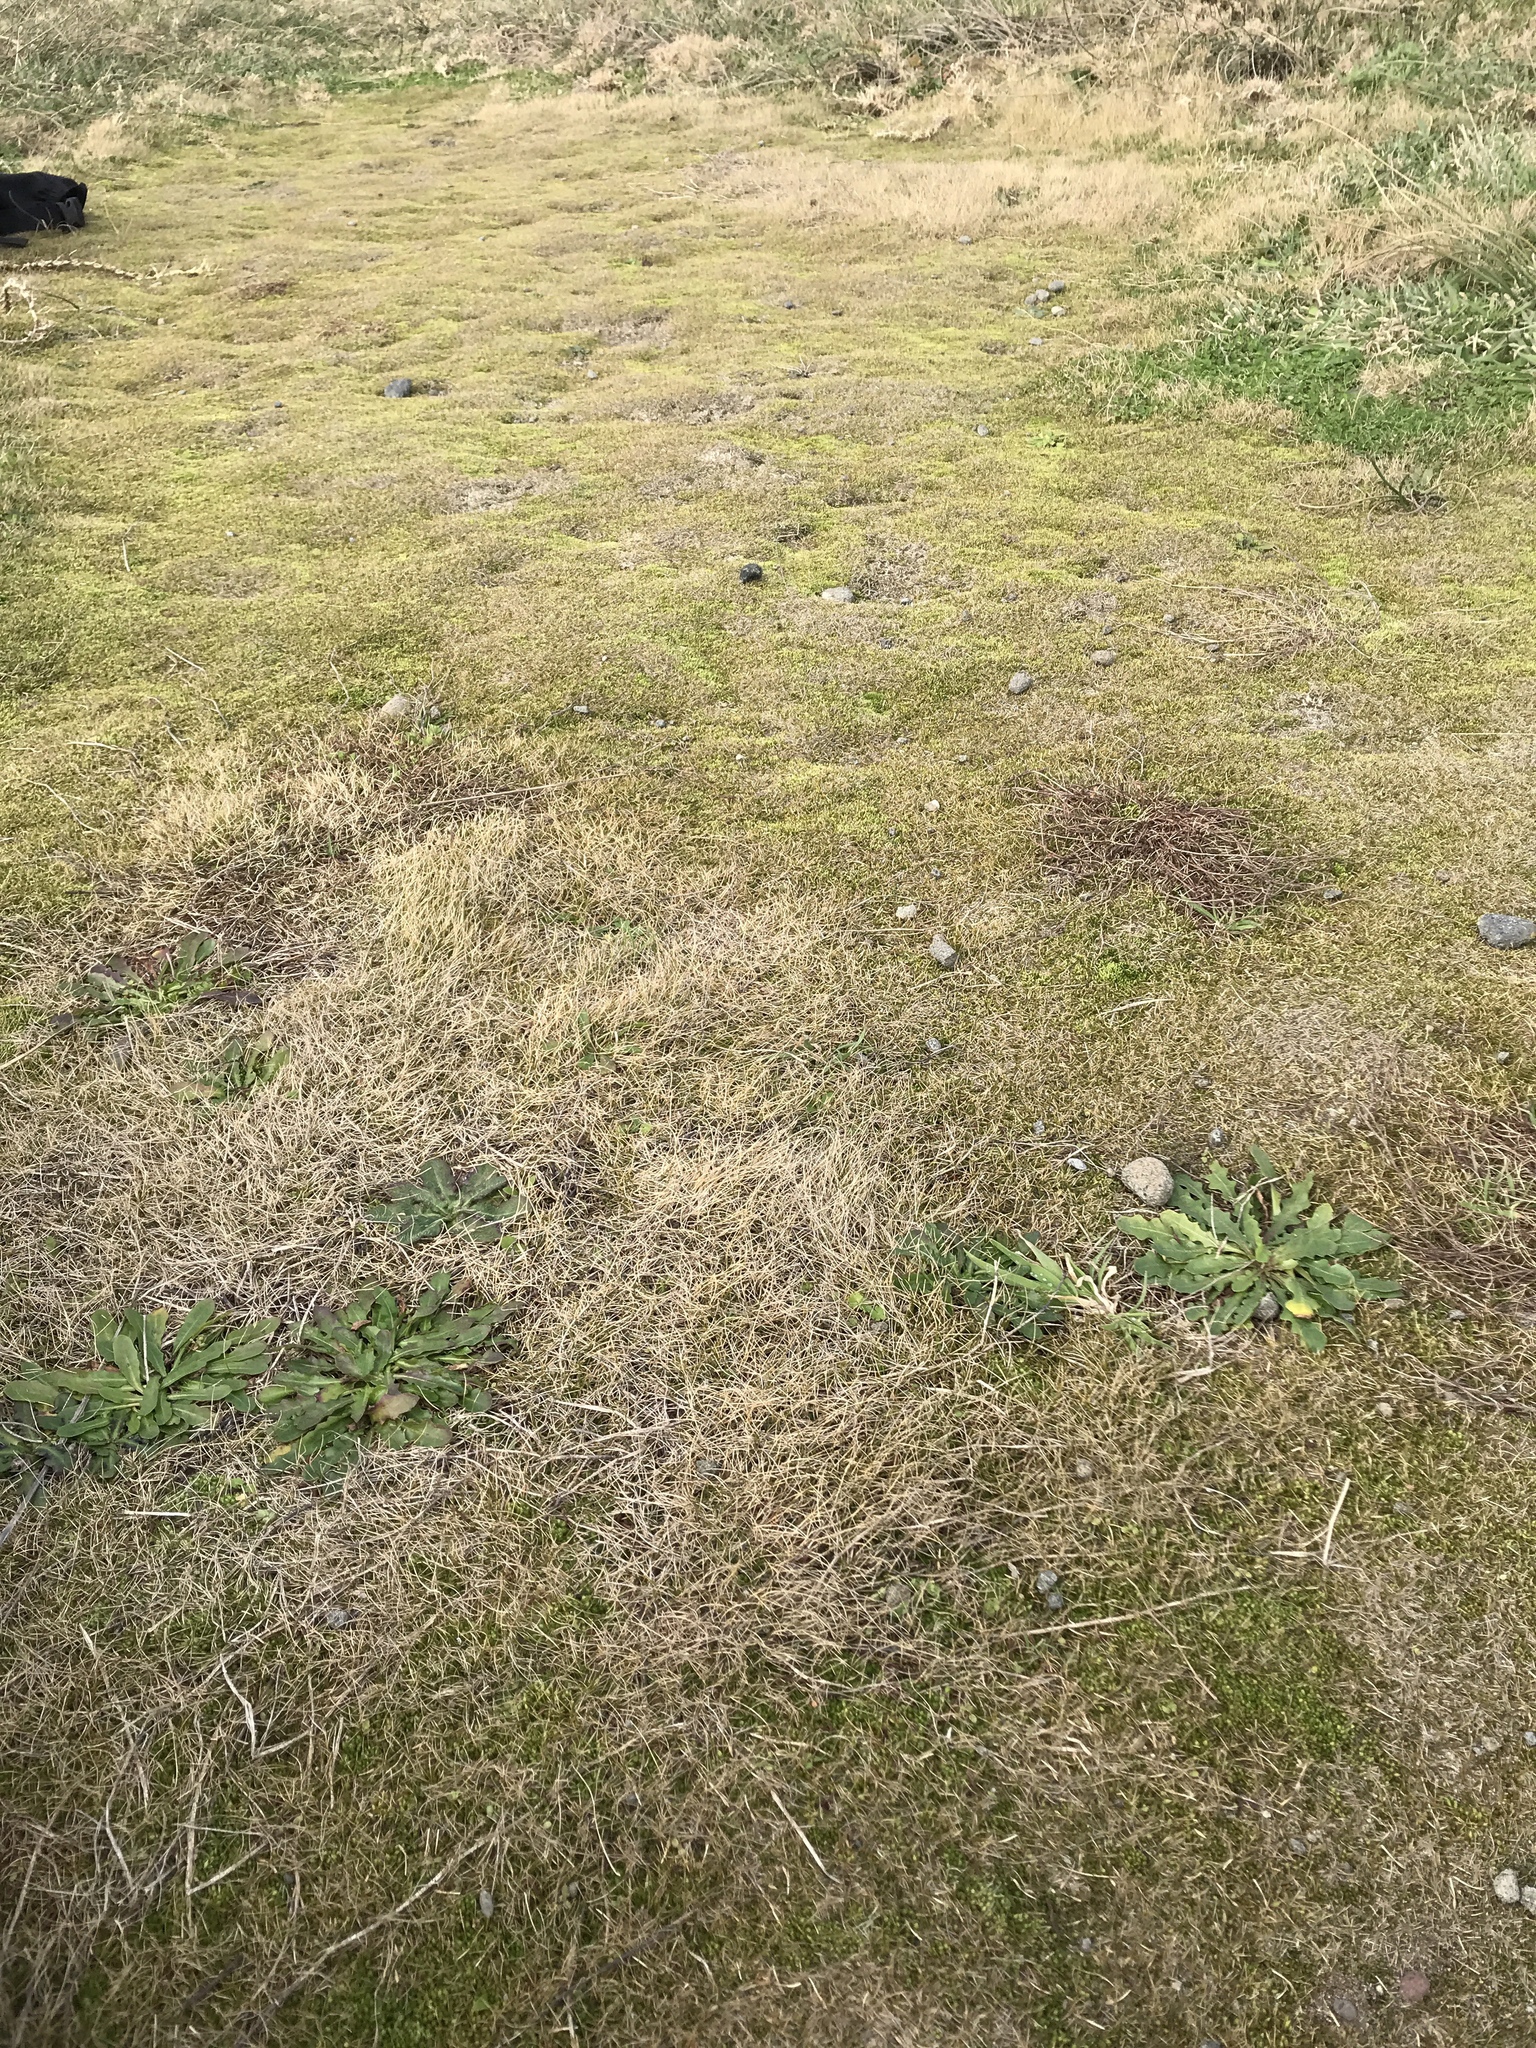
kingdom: Plantae
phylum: Tracheophyta
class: Liliopsida
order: Poales
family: Poaceae
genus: Zoysia
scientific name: Zoysia minima
